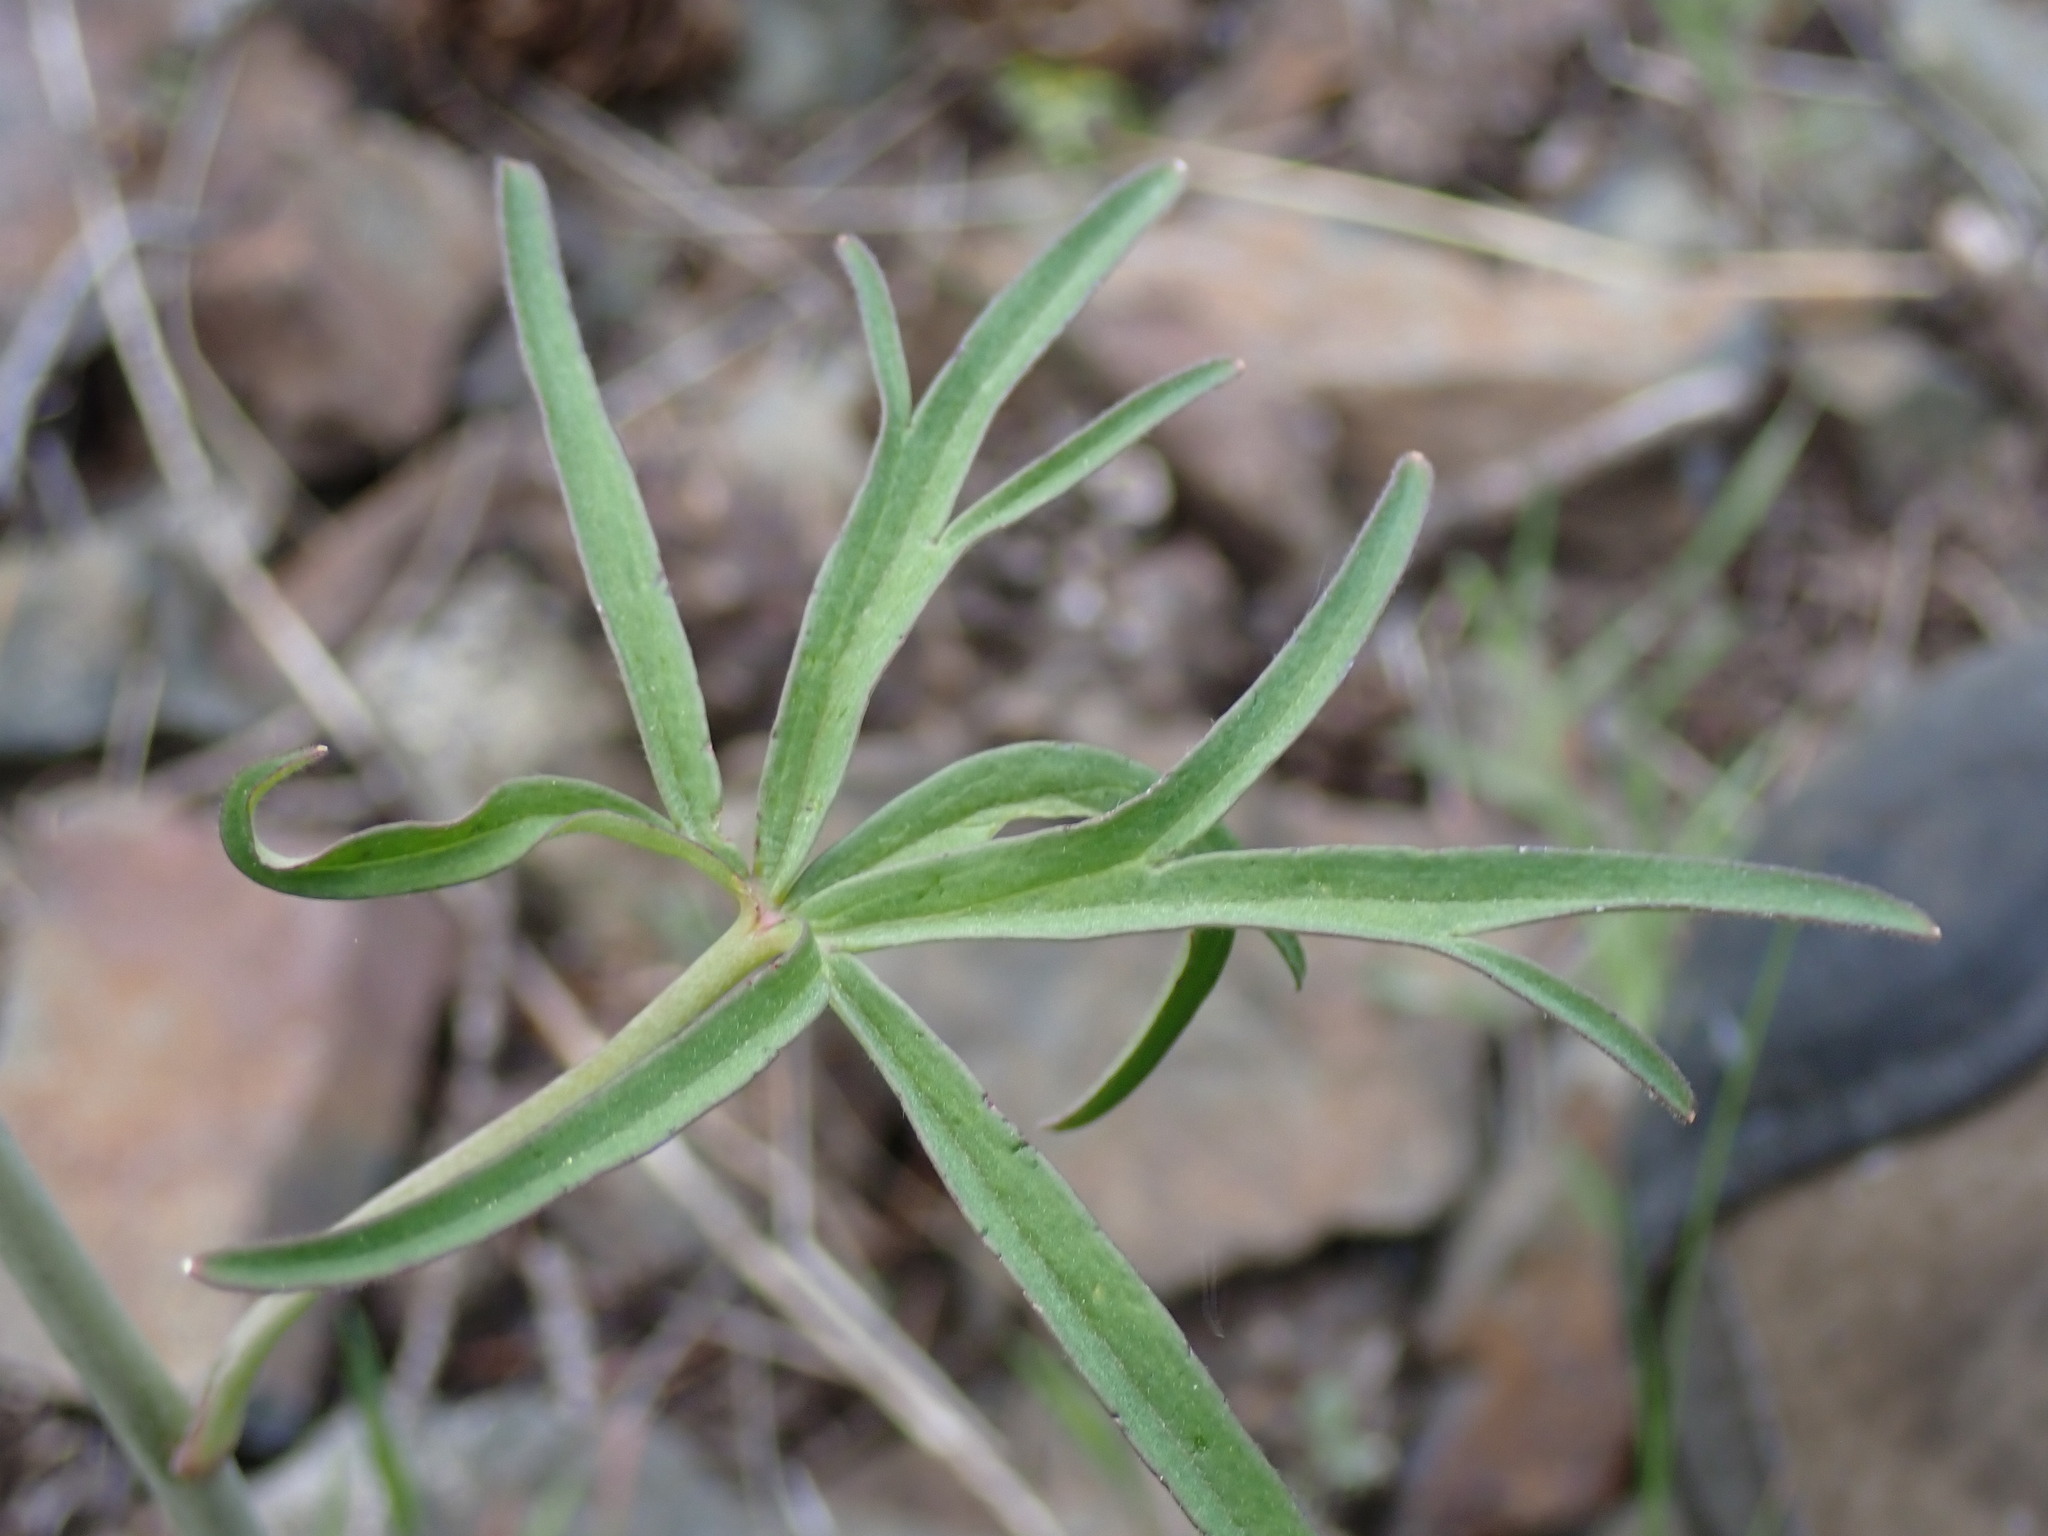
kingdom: Plantae
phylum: Tracheophyta
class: Magnoliopsida
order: Ranunculales
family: Ranunculaceae
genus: Delphinium
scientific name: Delphinium nuttallianum
